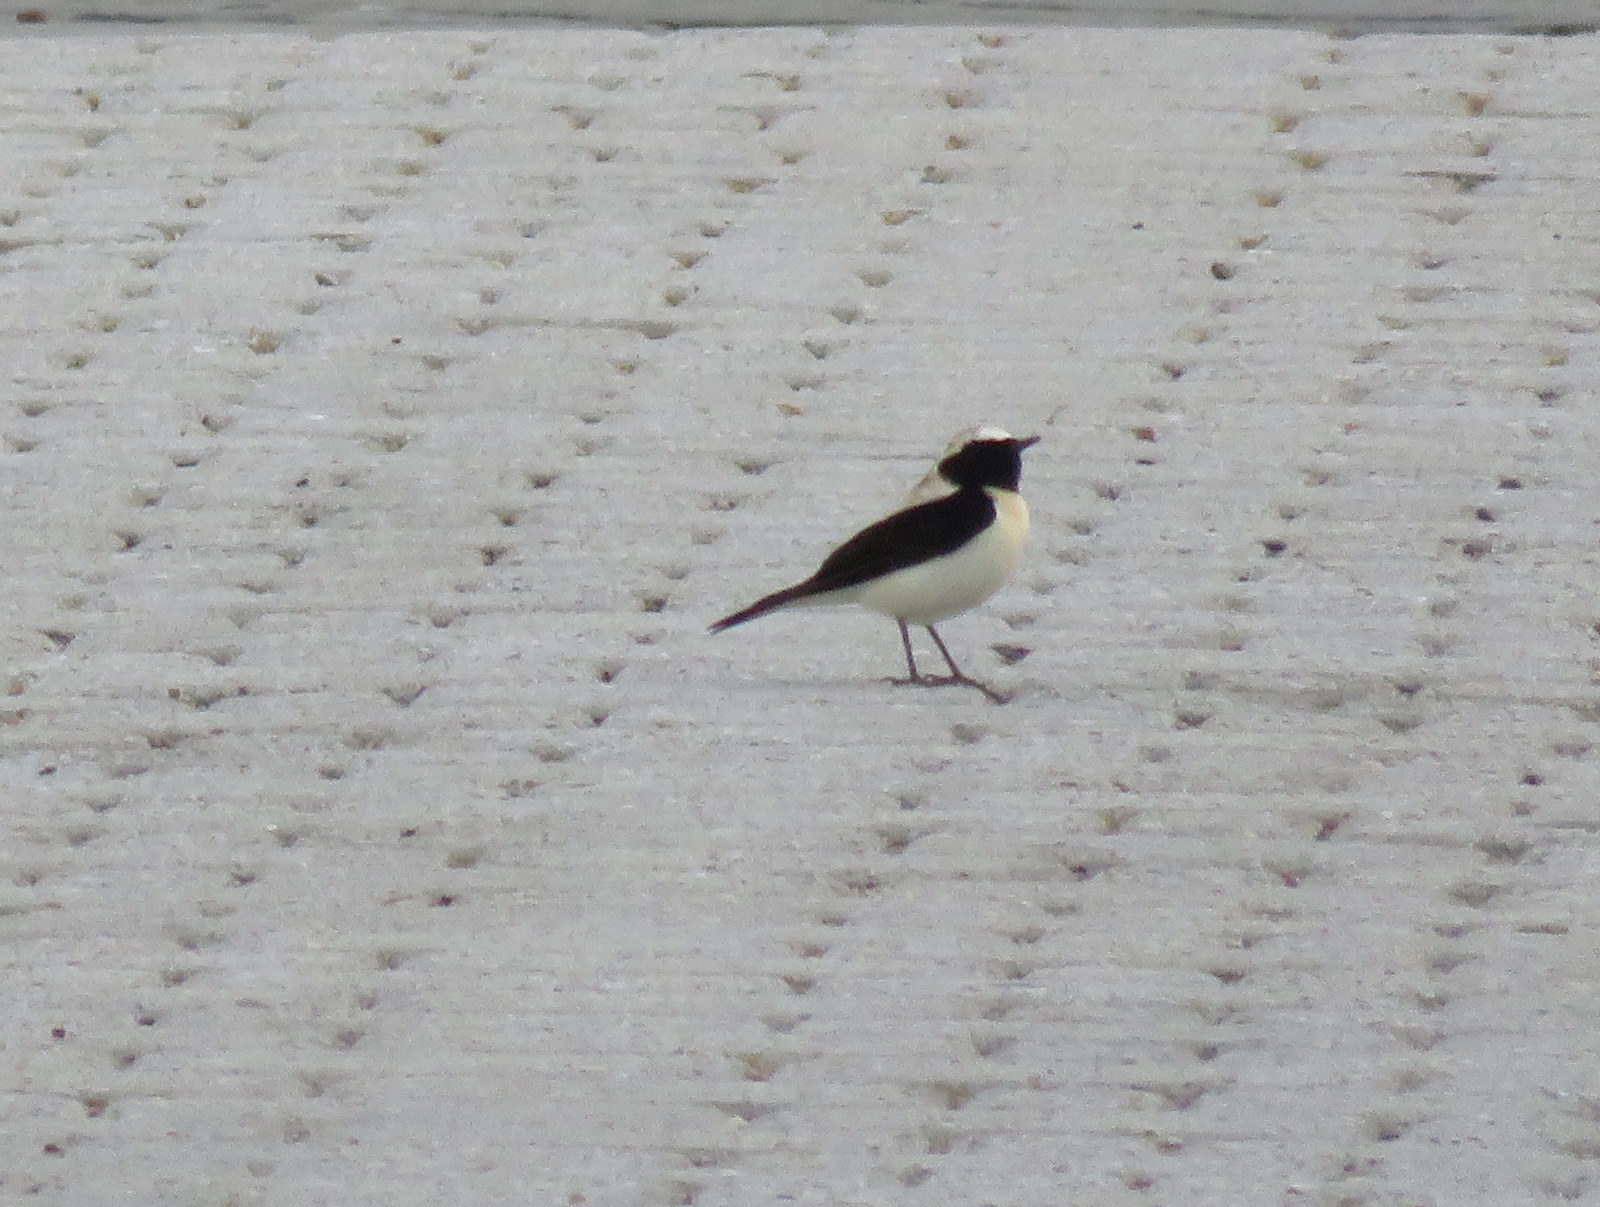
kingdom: Animalia
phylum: Chordata
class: Aves
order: Passeriformes
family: Muscicapidae
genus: Oenanthe
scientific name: Oenanthe hispanica
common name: Black-eared wheatear
